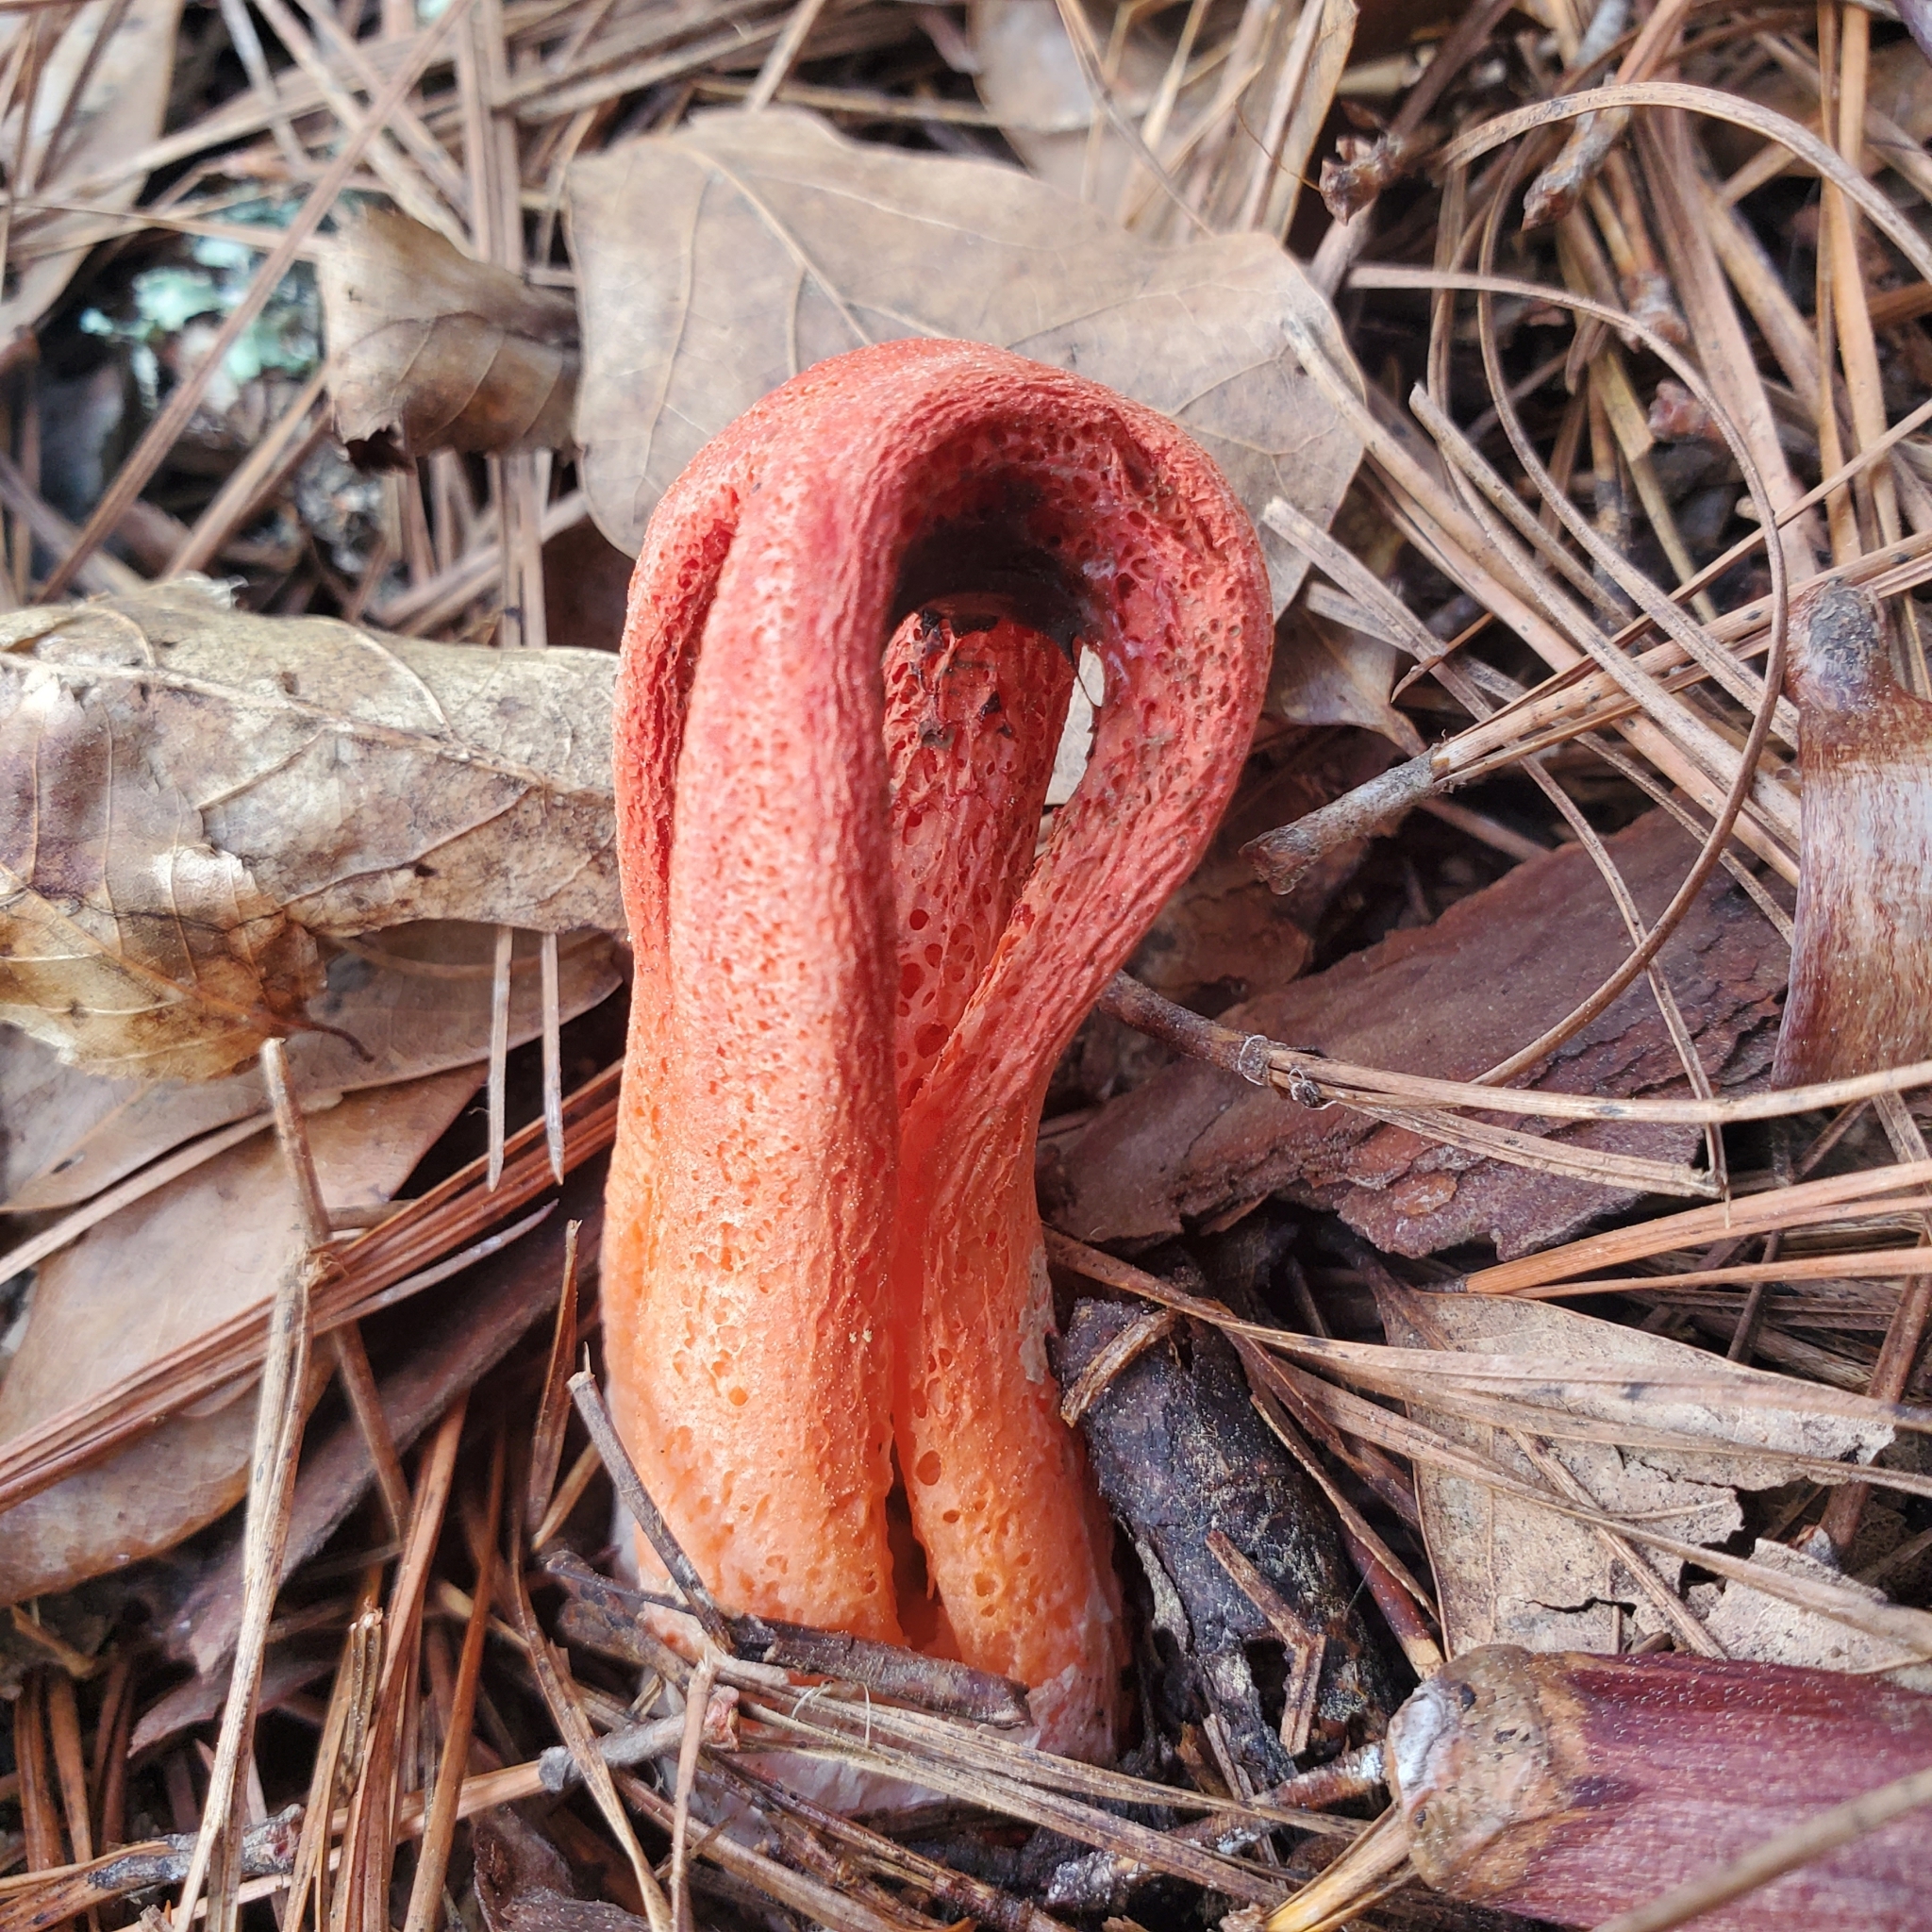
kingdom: Fungi
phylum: Basidiomycota
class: Agaricomycetes
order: Phallales
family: Phallaceae
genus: Clathrus
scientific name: Clathrus columnatus
